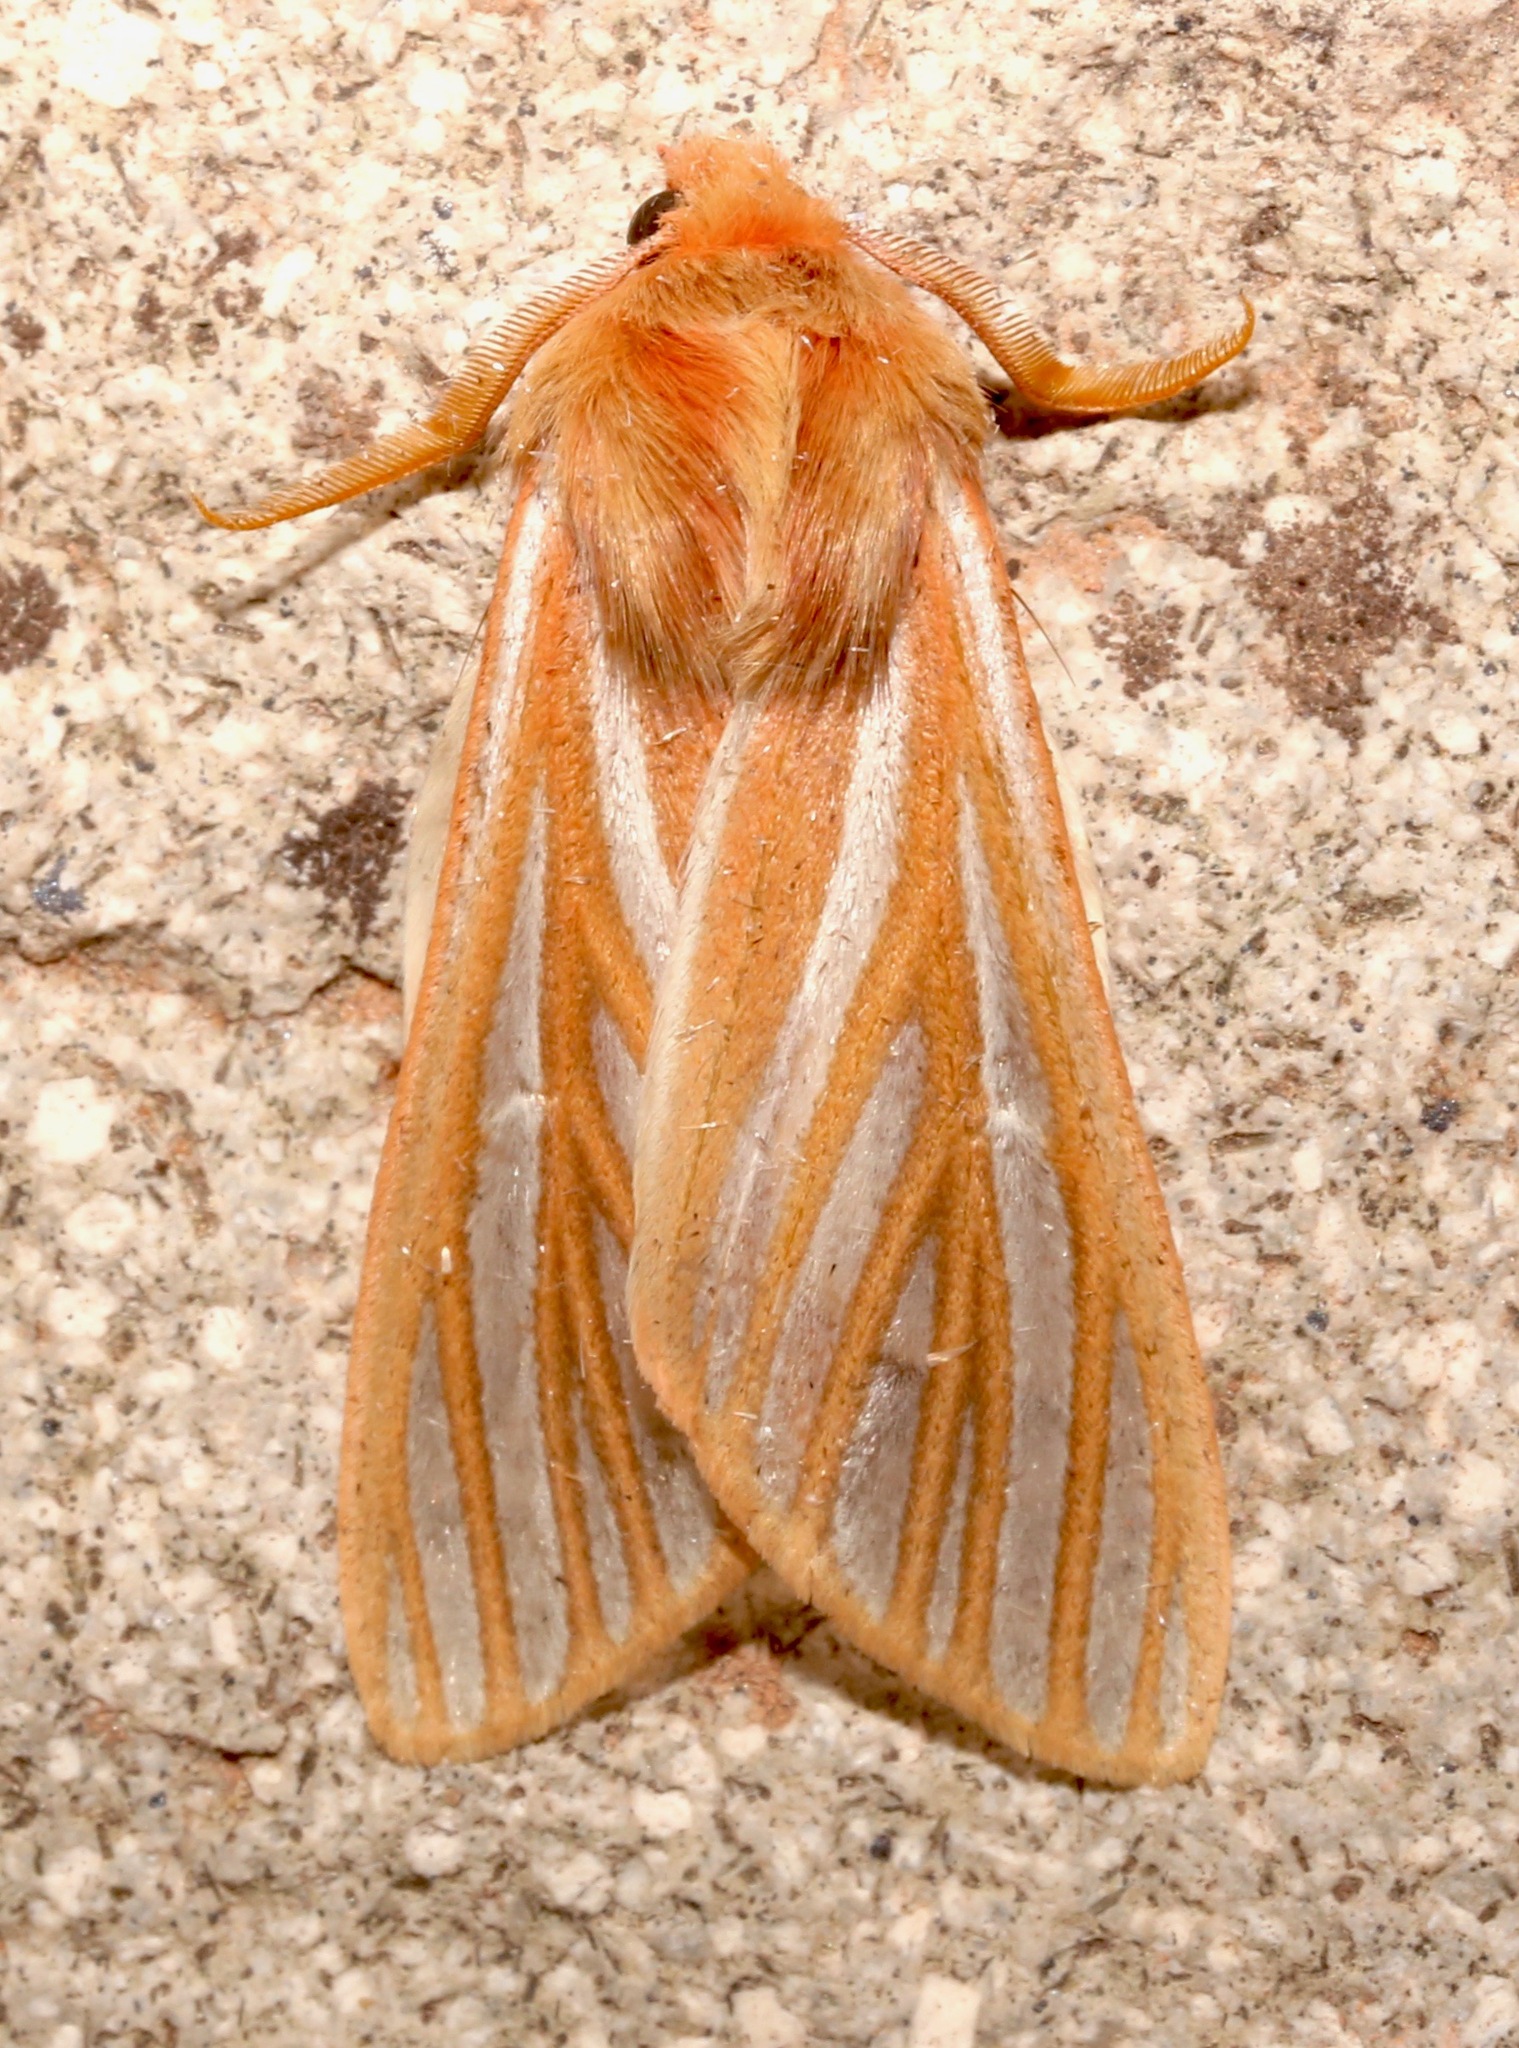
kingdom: Animalia
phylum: Arthropoda
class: Insecta
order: Lepidoptera
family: Erebidae
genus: Hemihyalea
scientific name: Hemihyalea ambigua
